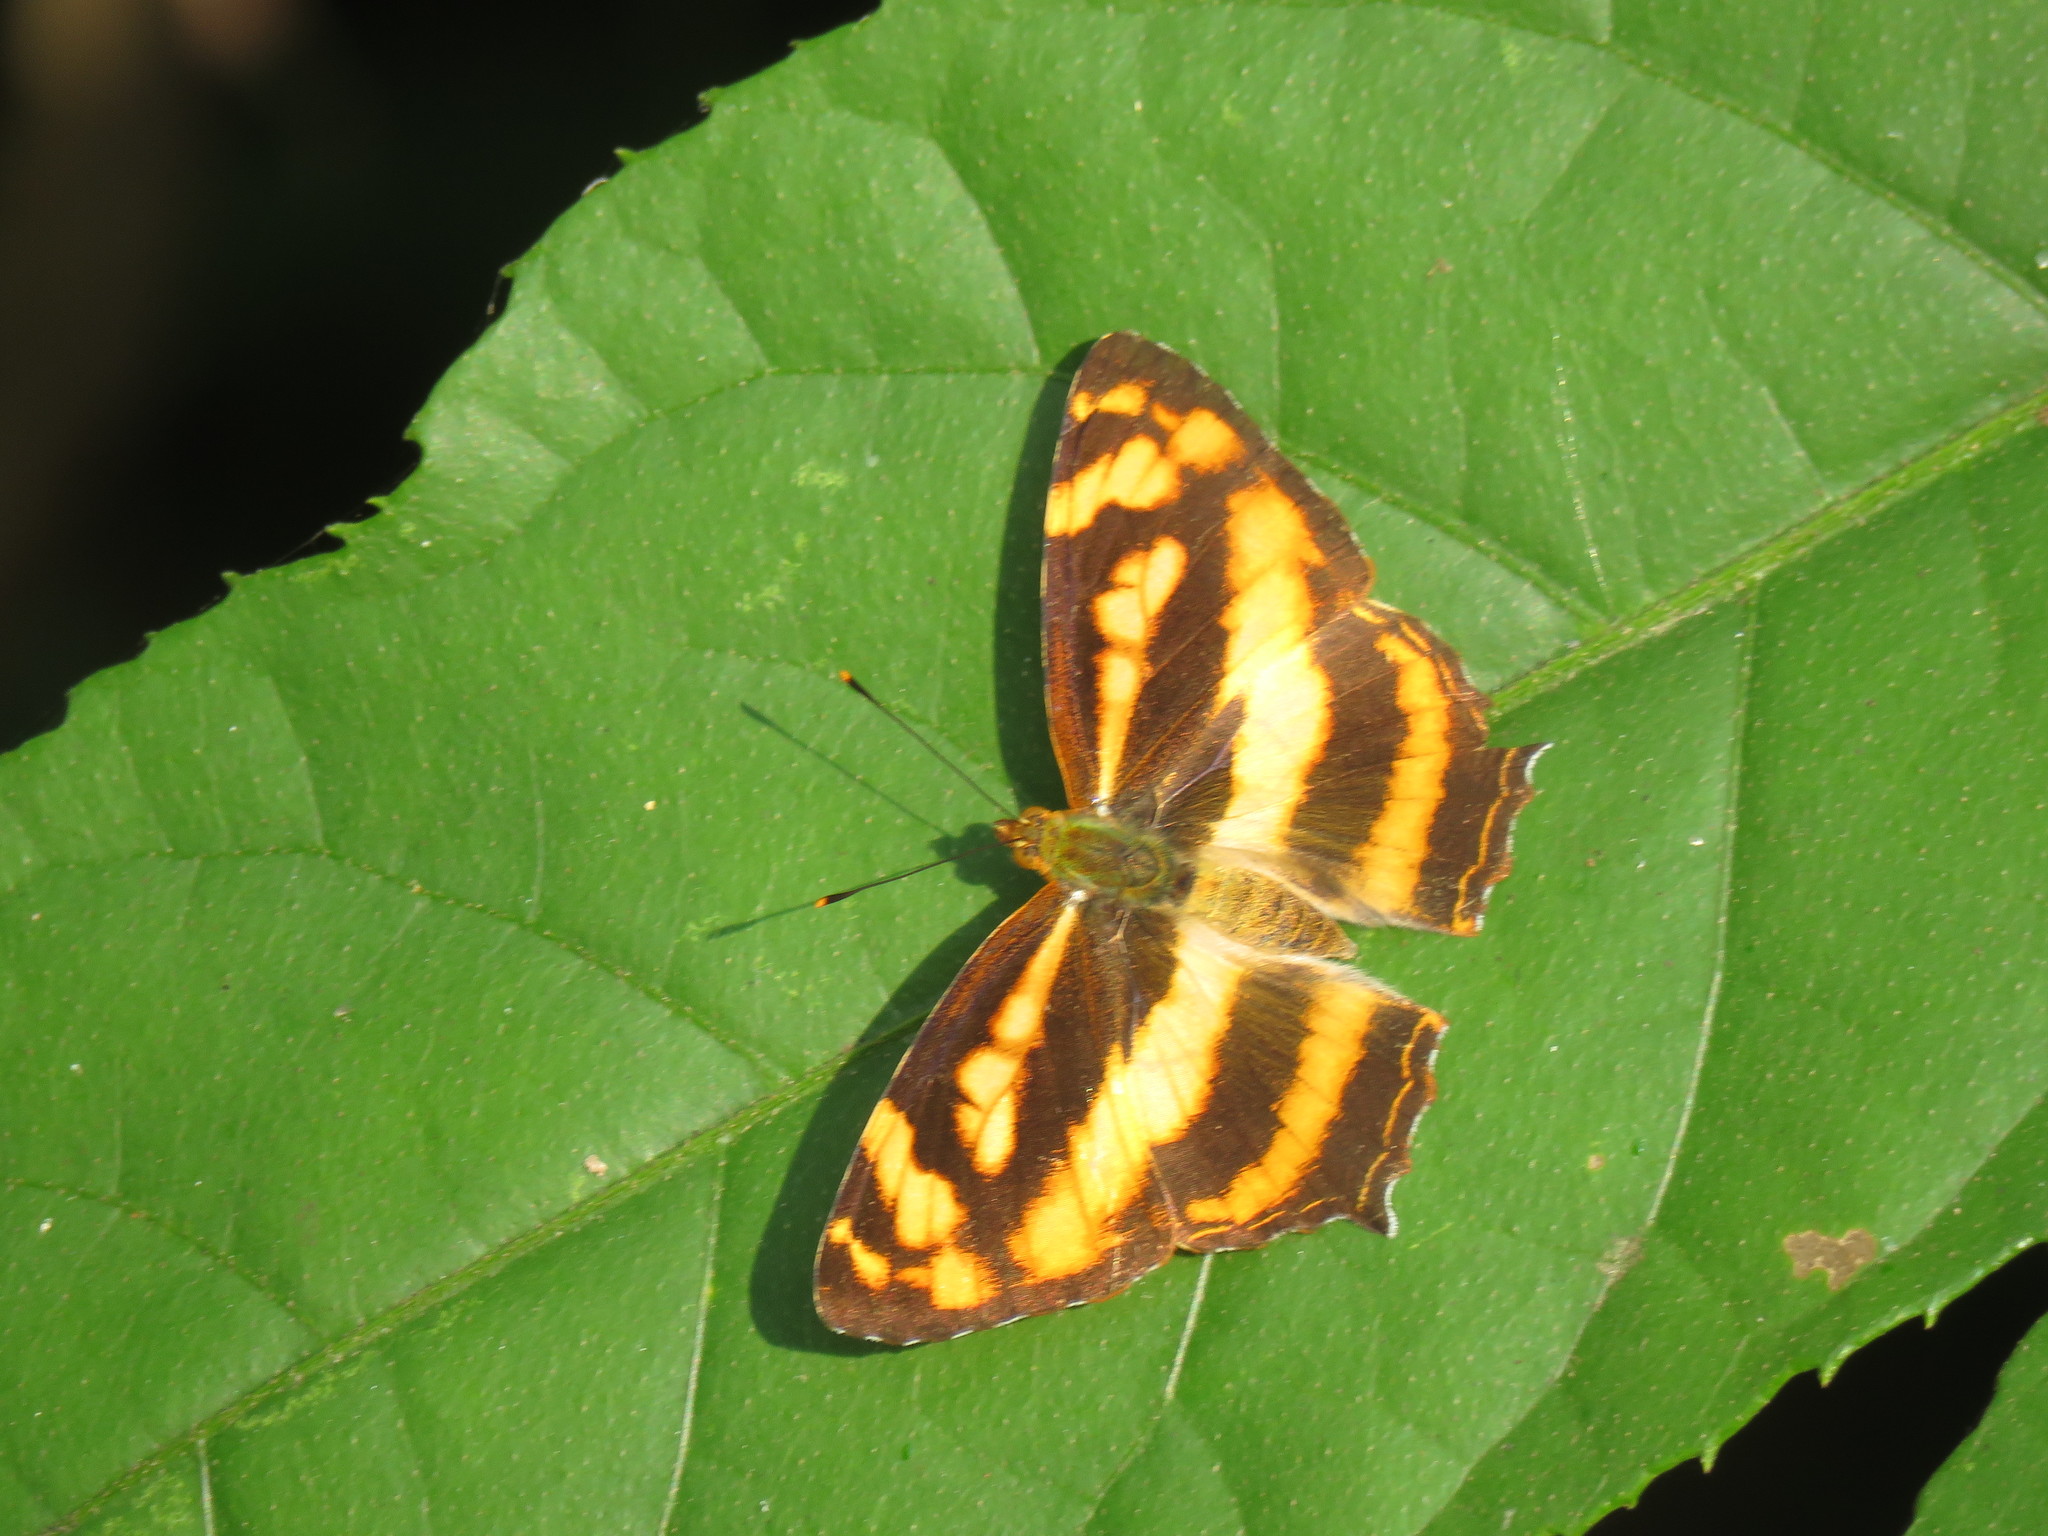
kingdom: Animalia
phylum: Arthropoda
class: Insecta
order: Lepidoptera
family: Nymphalidae
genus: Symbrenthia
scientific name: Symbrenthia hypselis
